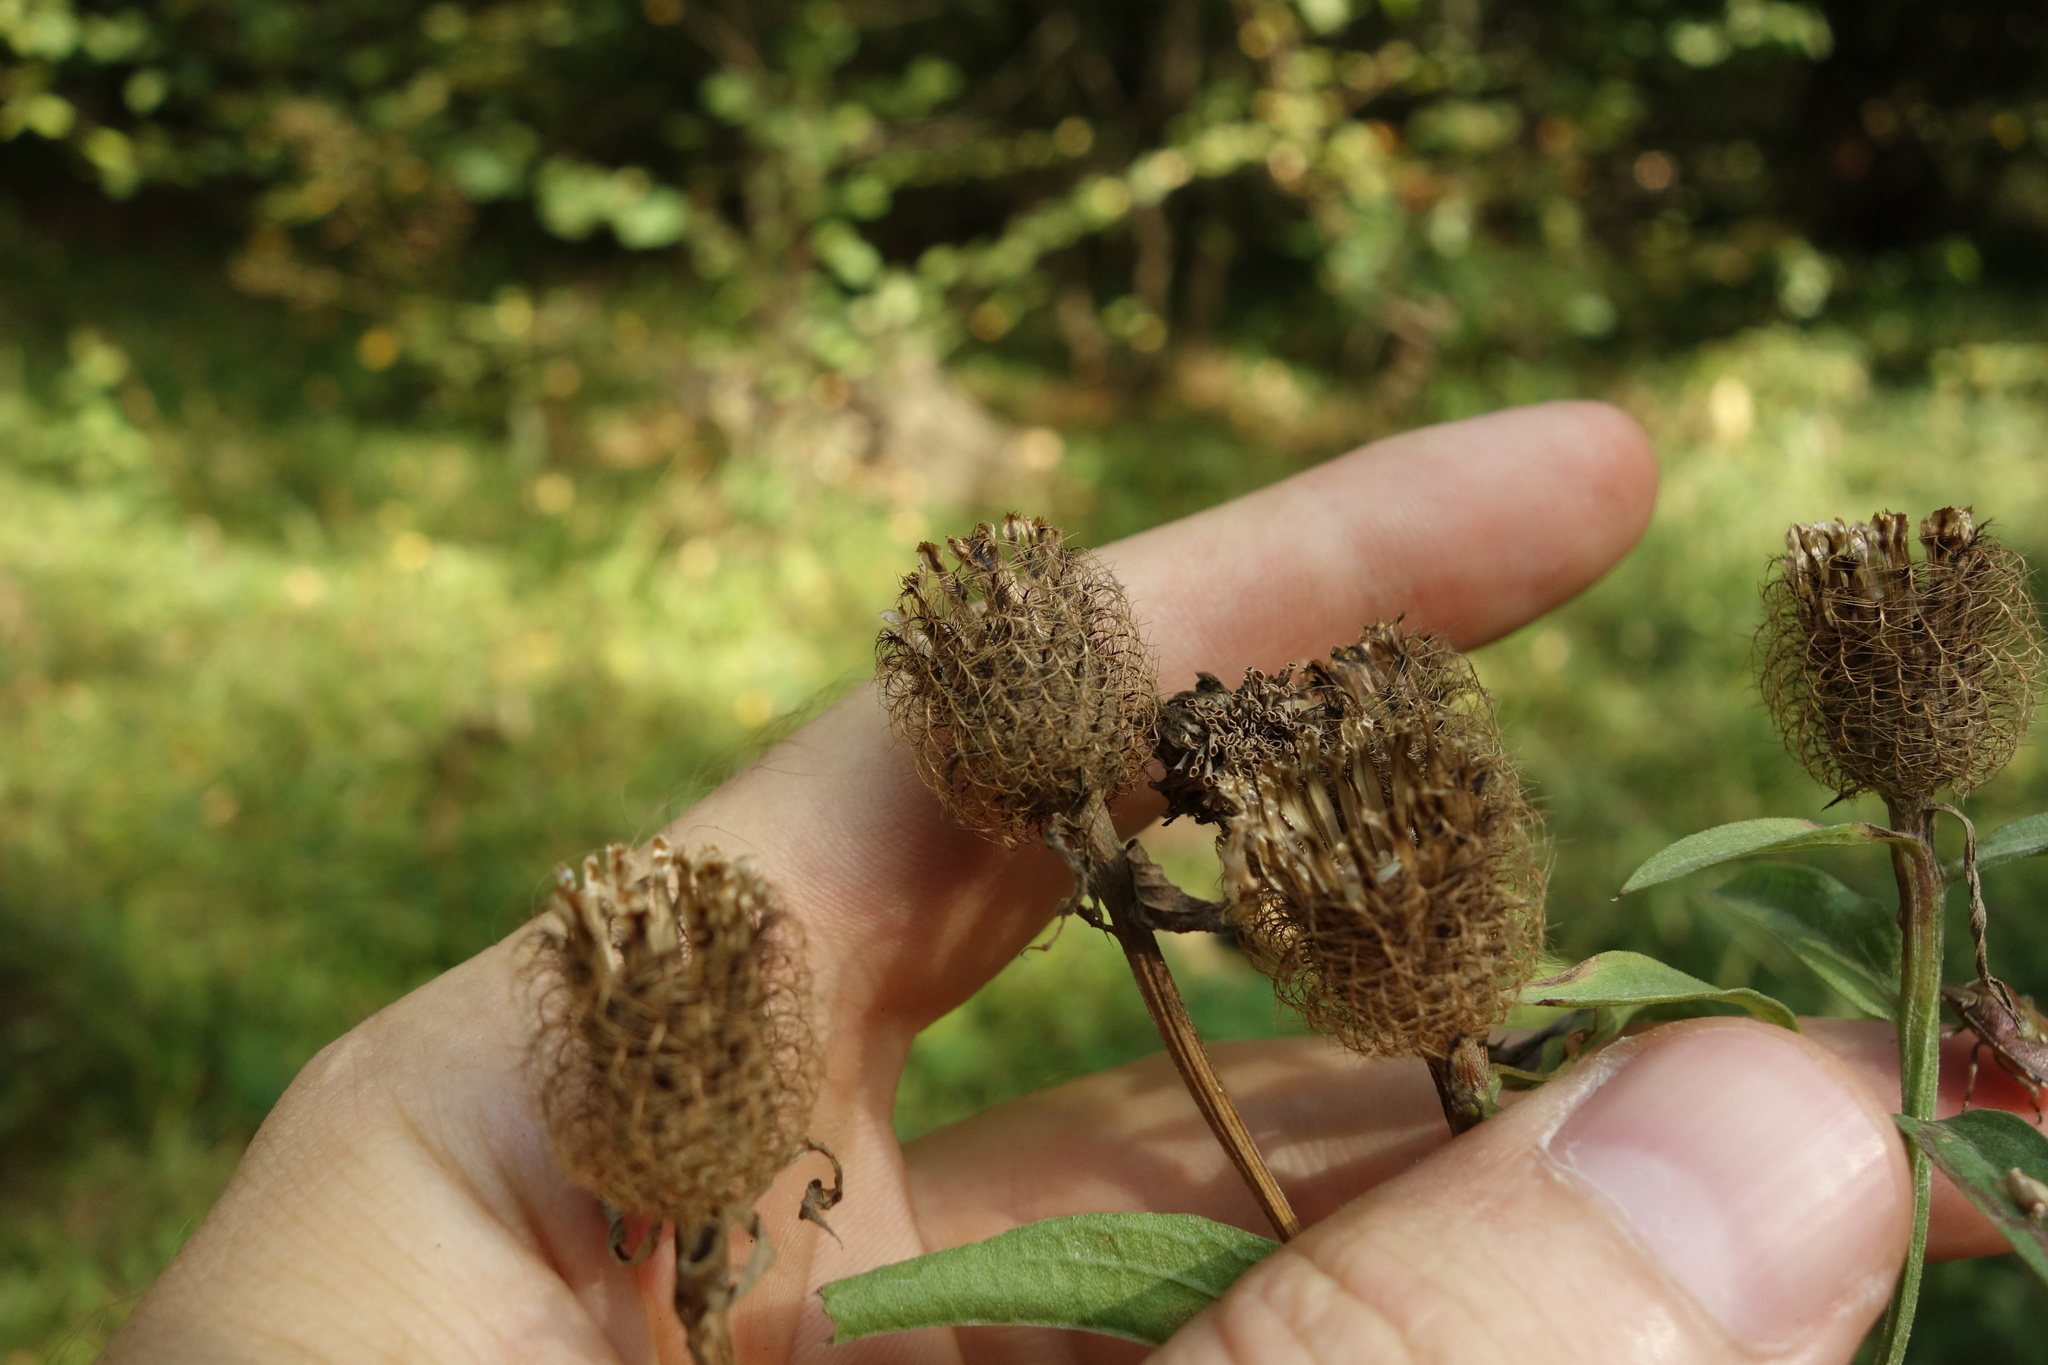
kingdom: Plantae
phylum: Tracheophyta
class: Magnoliopsida
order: Asterales
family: Asteraceae
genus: Centaurea
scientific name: Centaurea pseudophrygia
